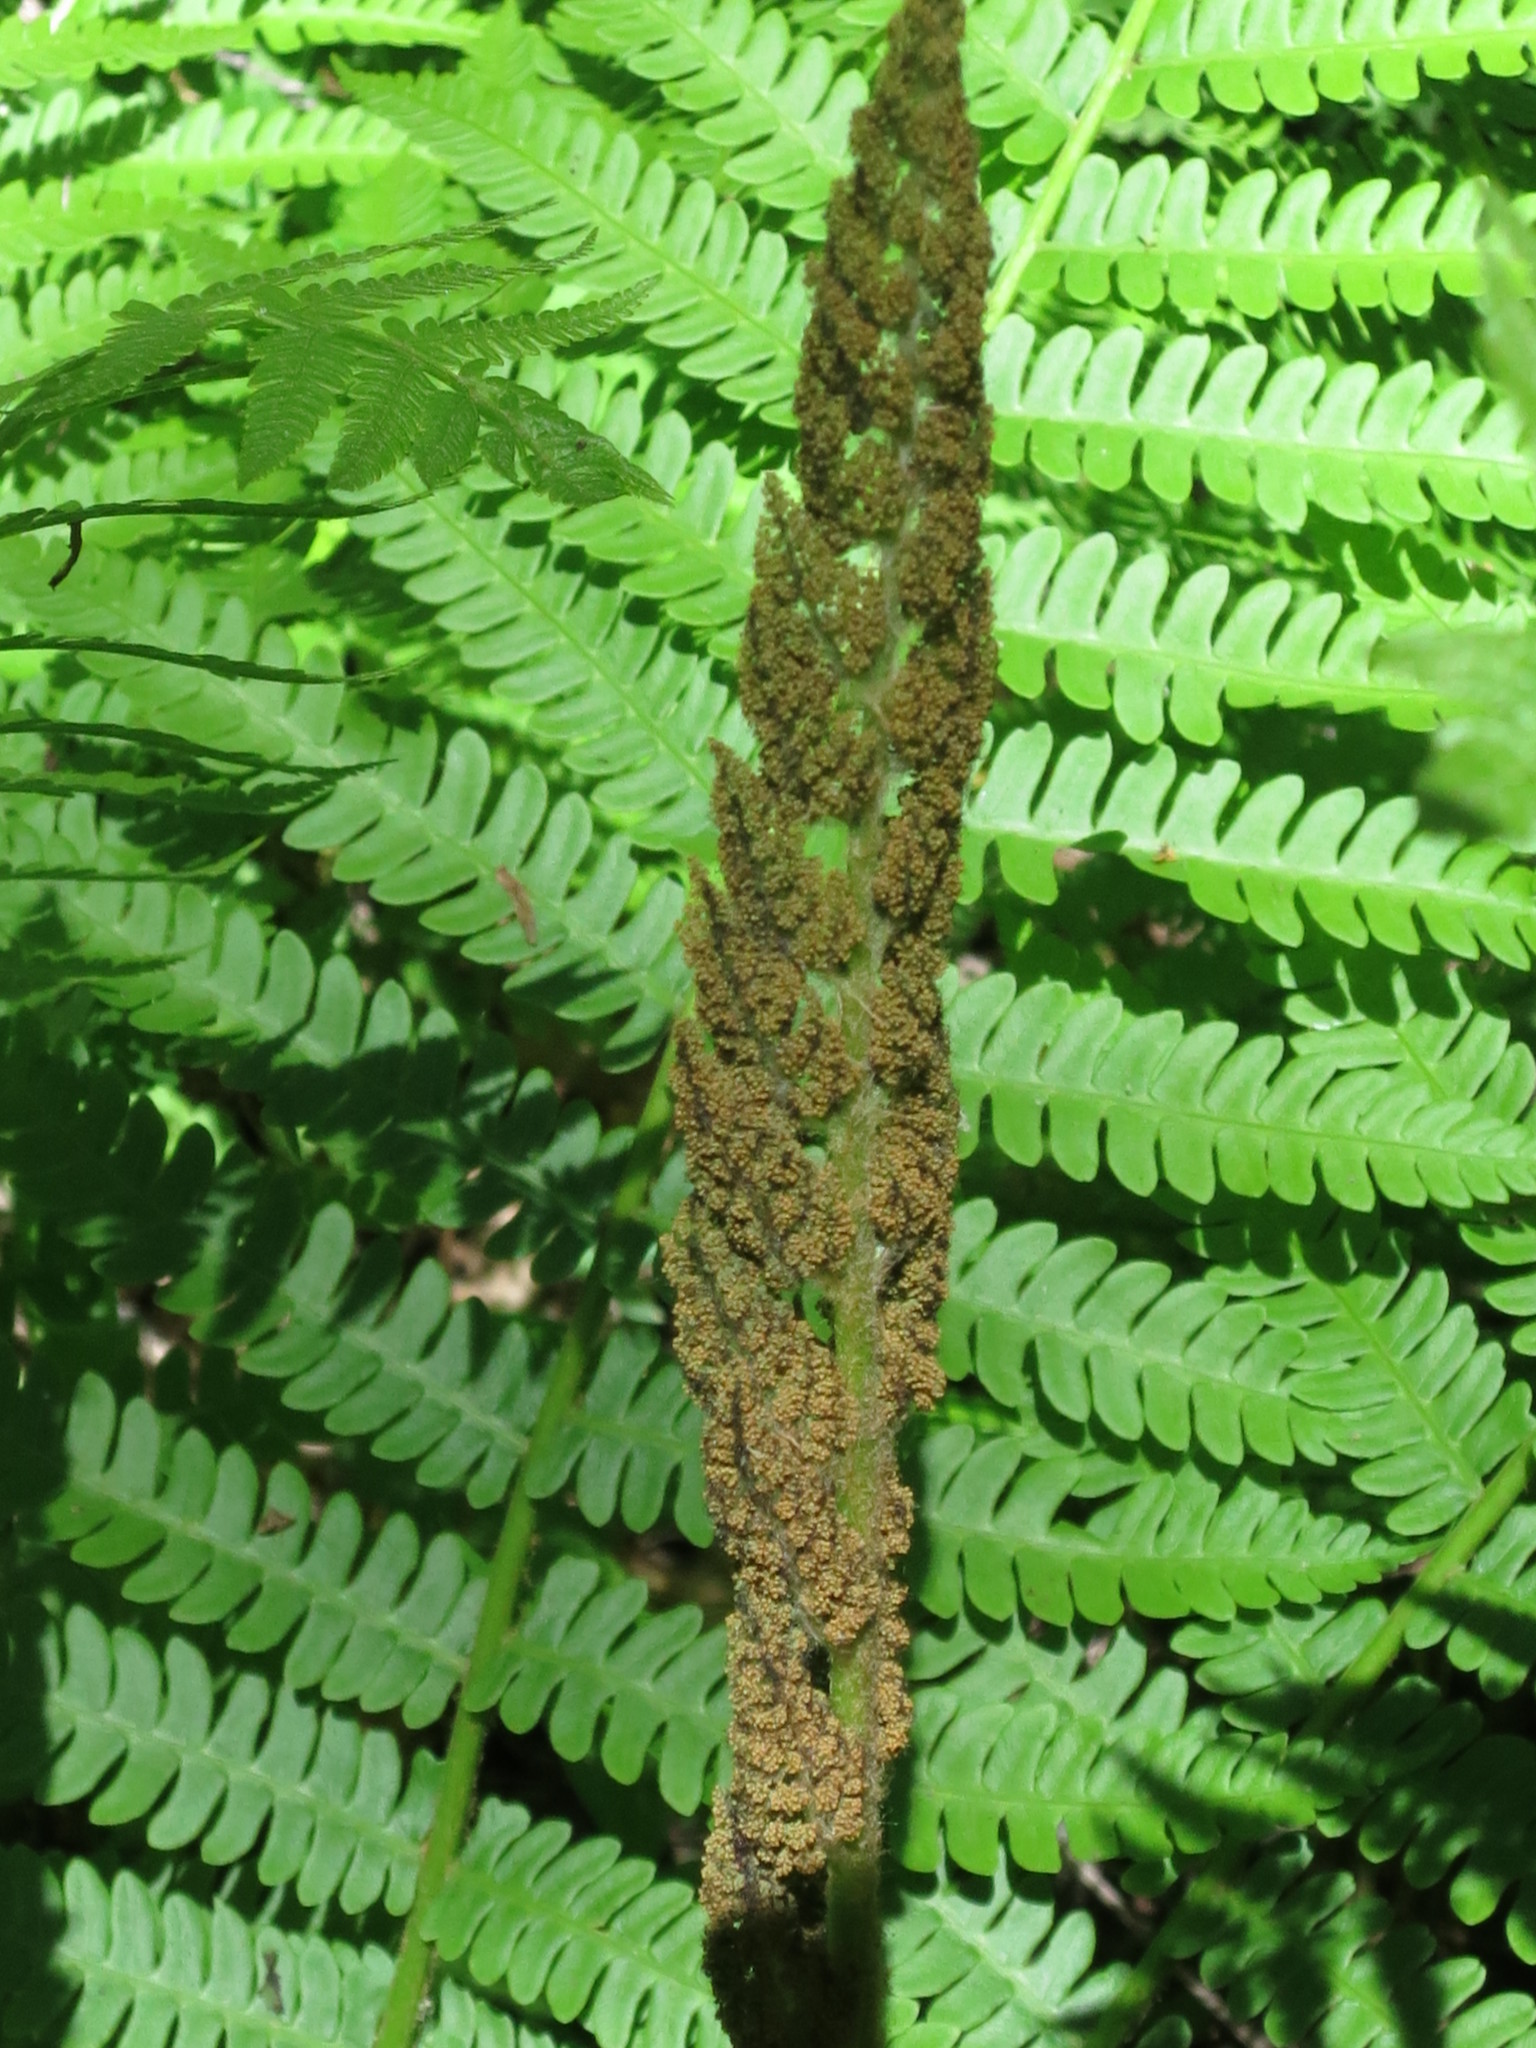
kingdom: Plantae
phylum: Tracheophyta
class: Polypodiopsida
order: Osmundales
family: Osmundaceae
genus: Osmundastrum
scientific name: Osmundastrum cinnamomeum
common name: Cinnamon fern
